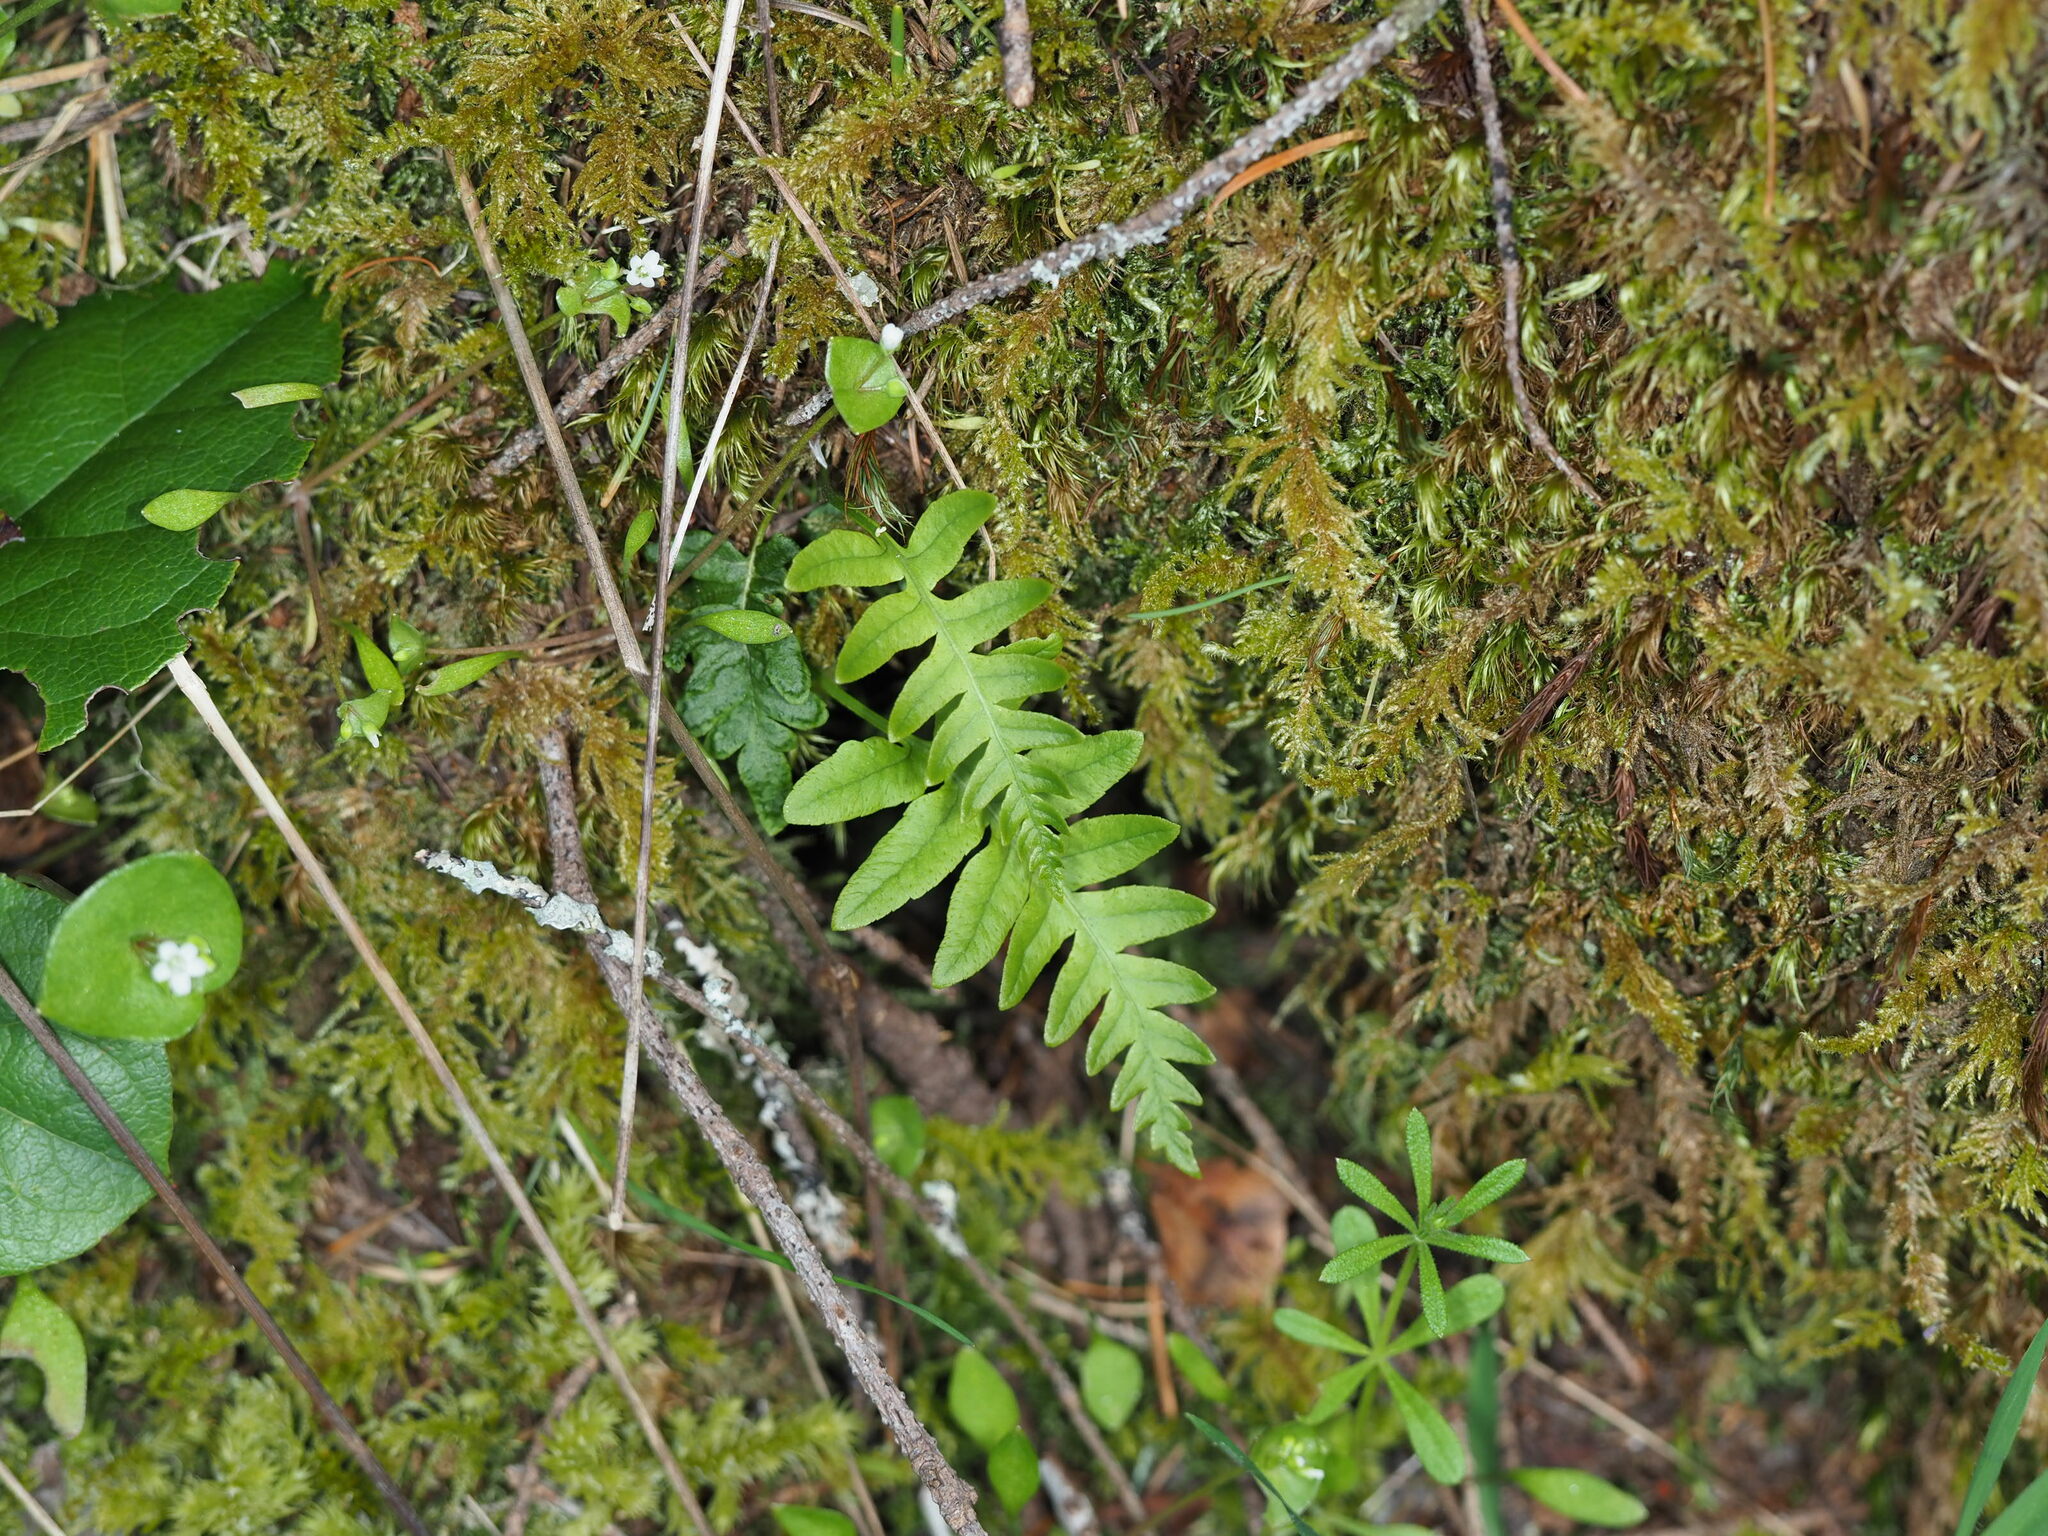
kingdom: Plantae
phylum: Tracheophyta
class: Polypodiopsida
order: Polypodiales
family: Polypodiaceae
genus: Polypodium
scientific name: Polypodium glycyrrhiza
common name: Licorice fern
